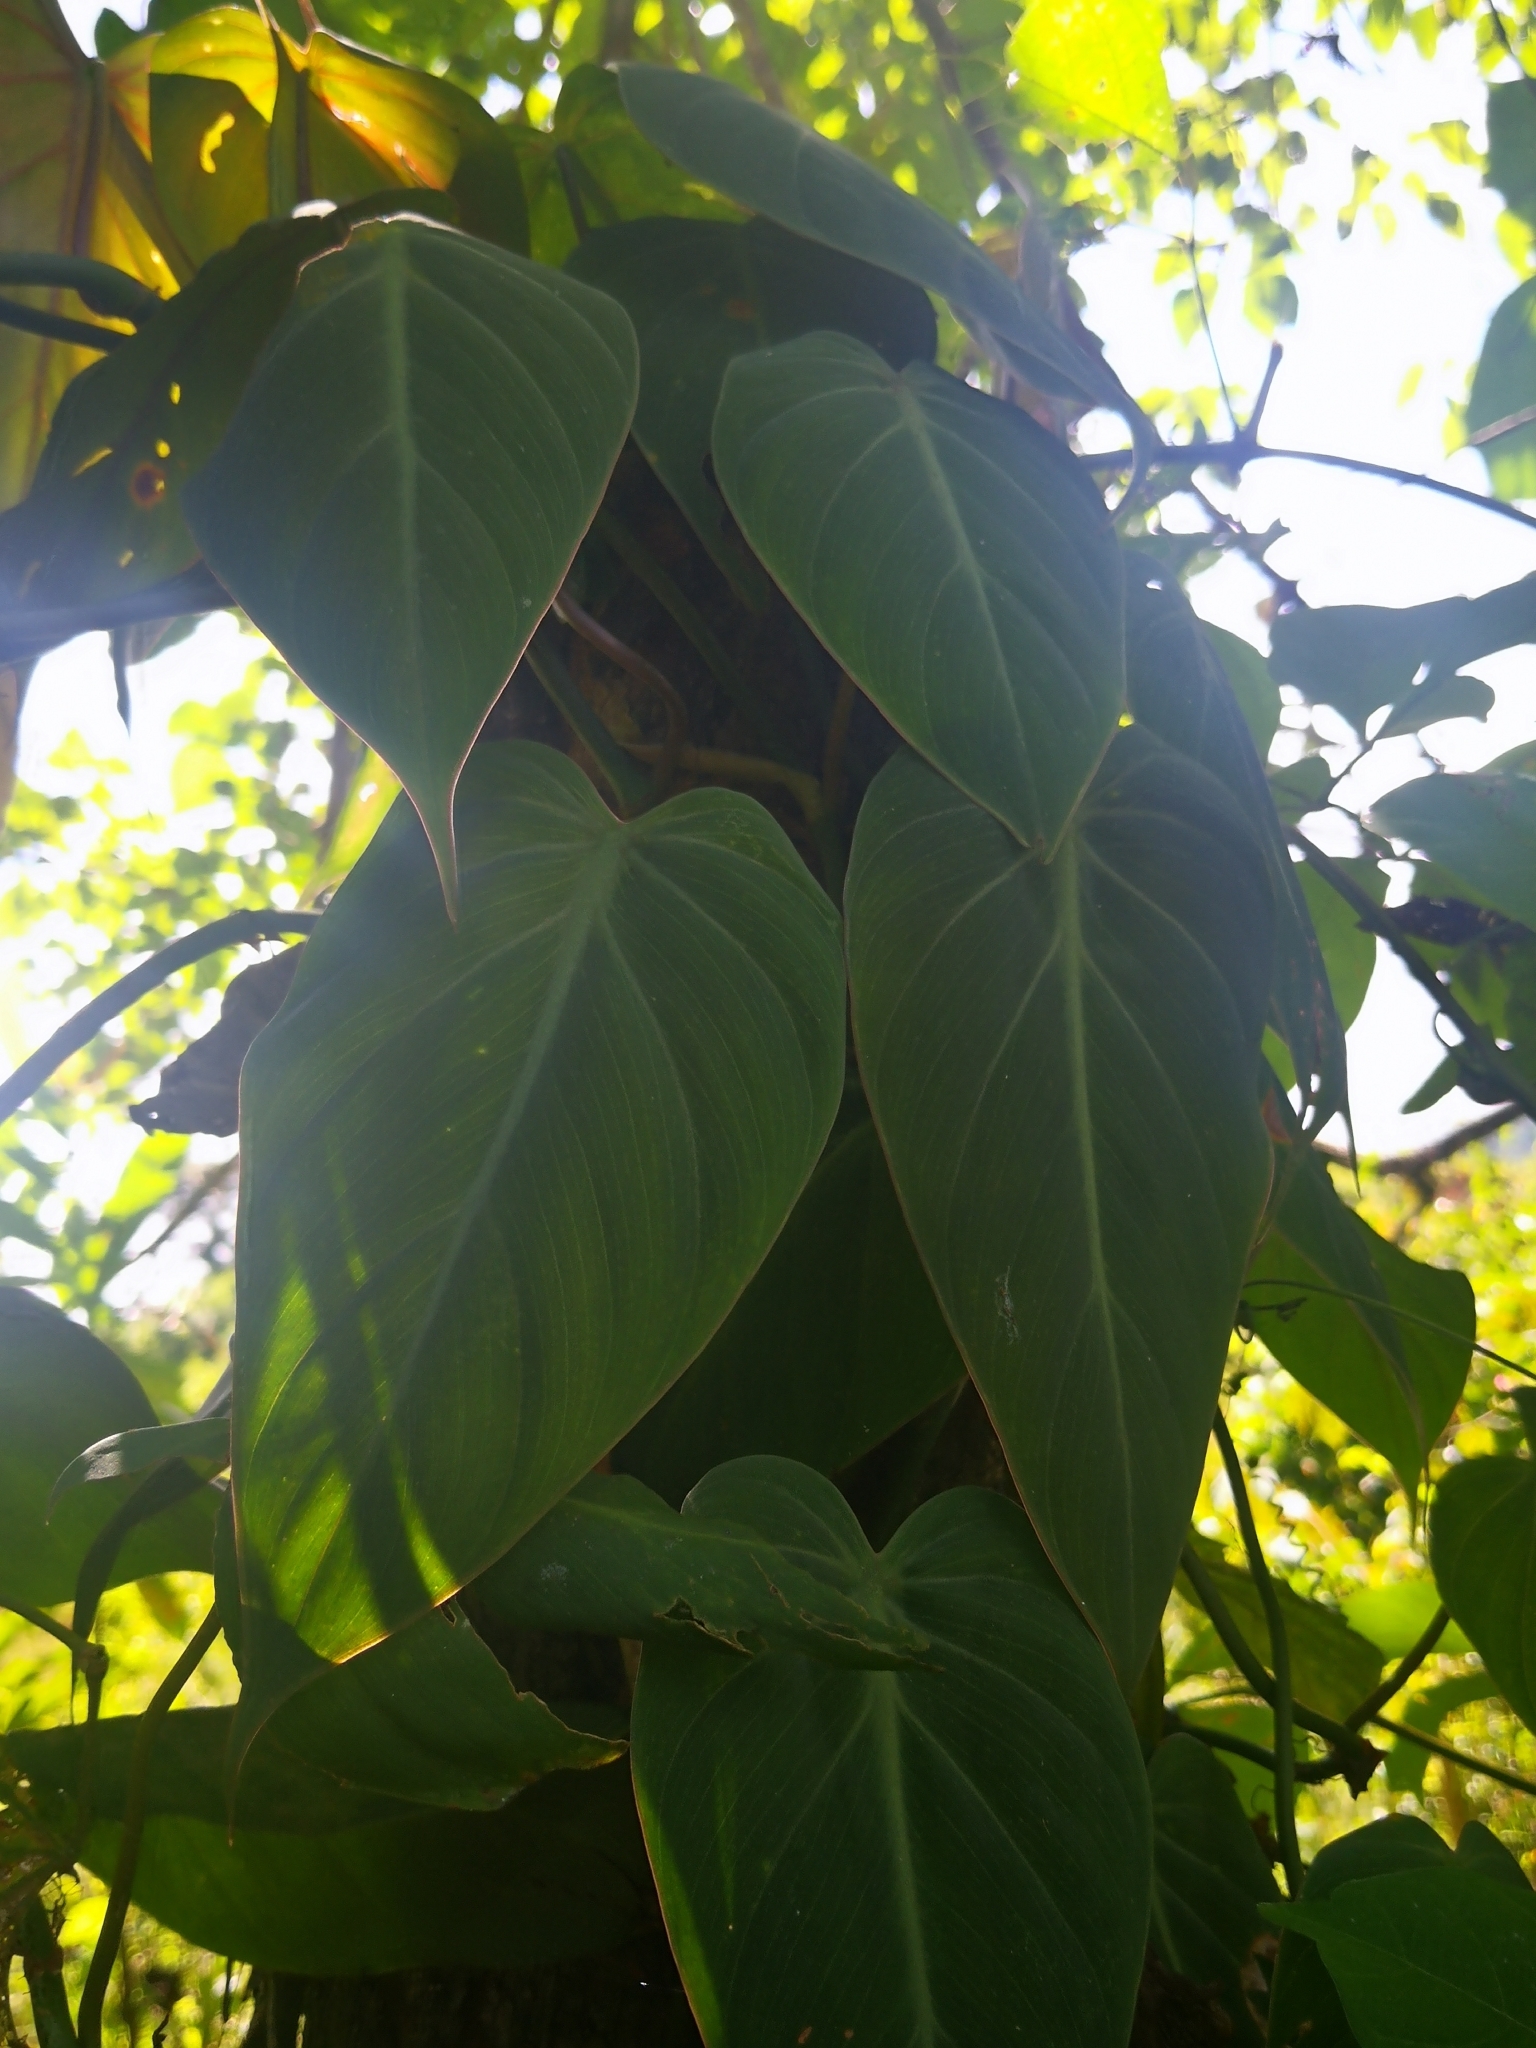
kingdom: Plantae
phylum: Tracheophyta
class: Liliopsida
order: Alismatales
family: Araceae
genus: Philodendron
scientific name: Philodendron hederaceum
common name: Vilevine
